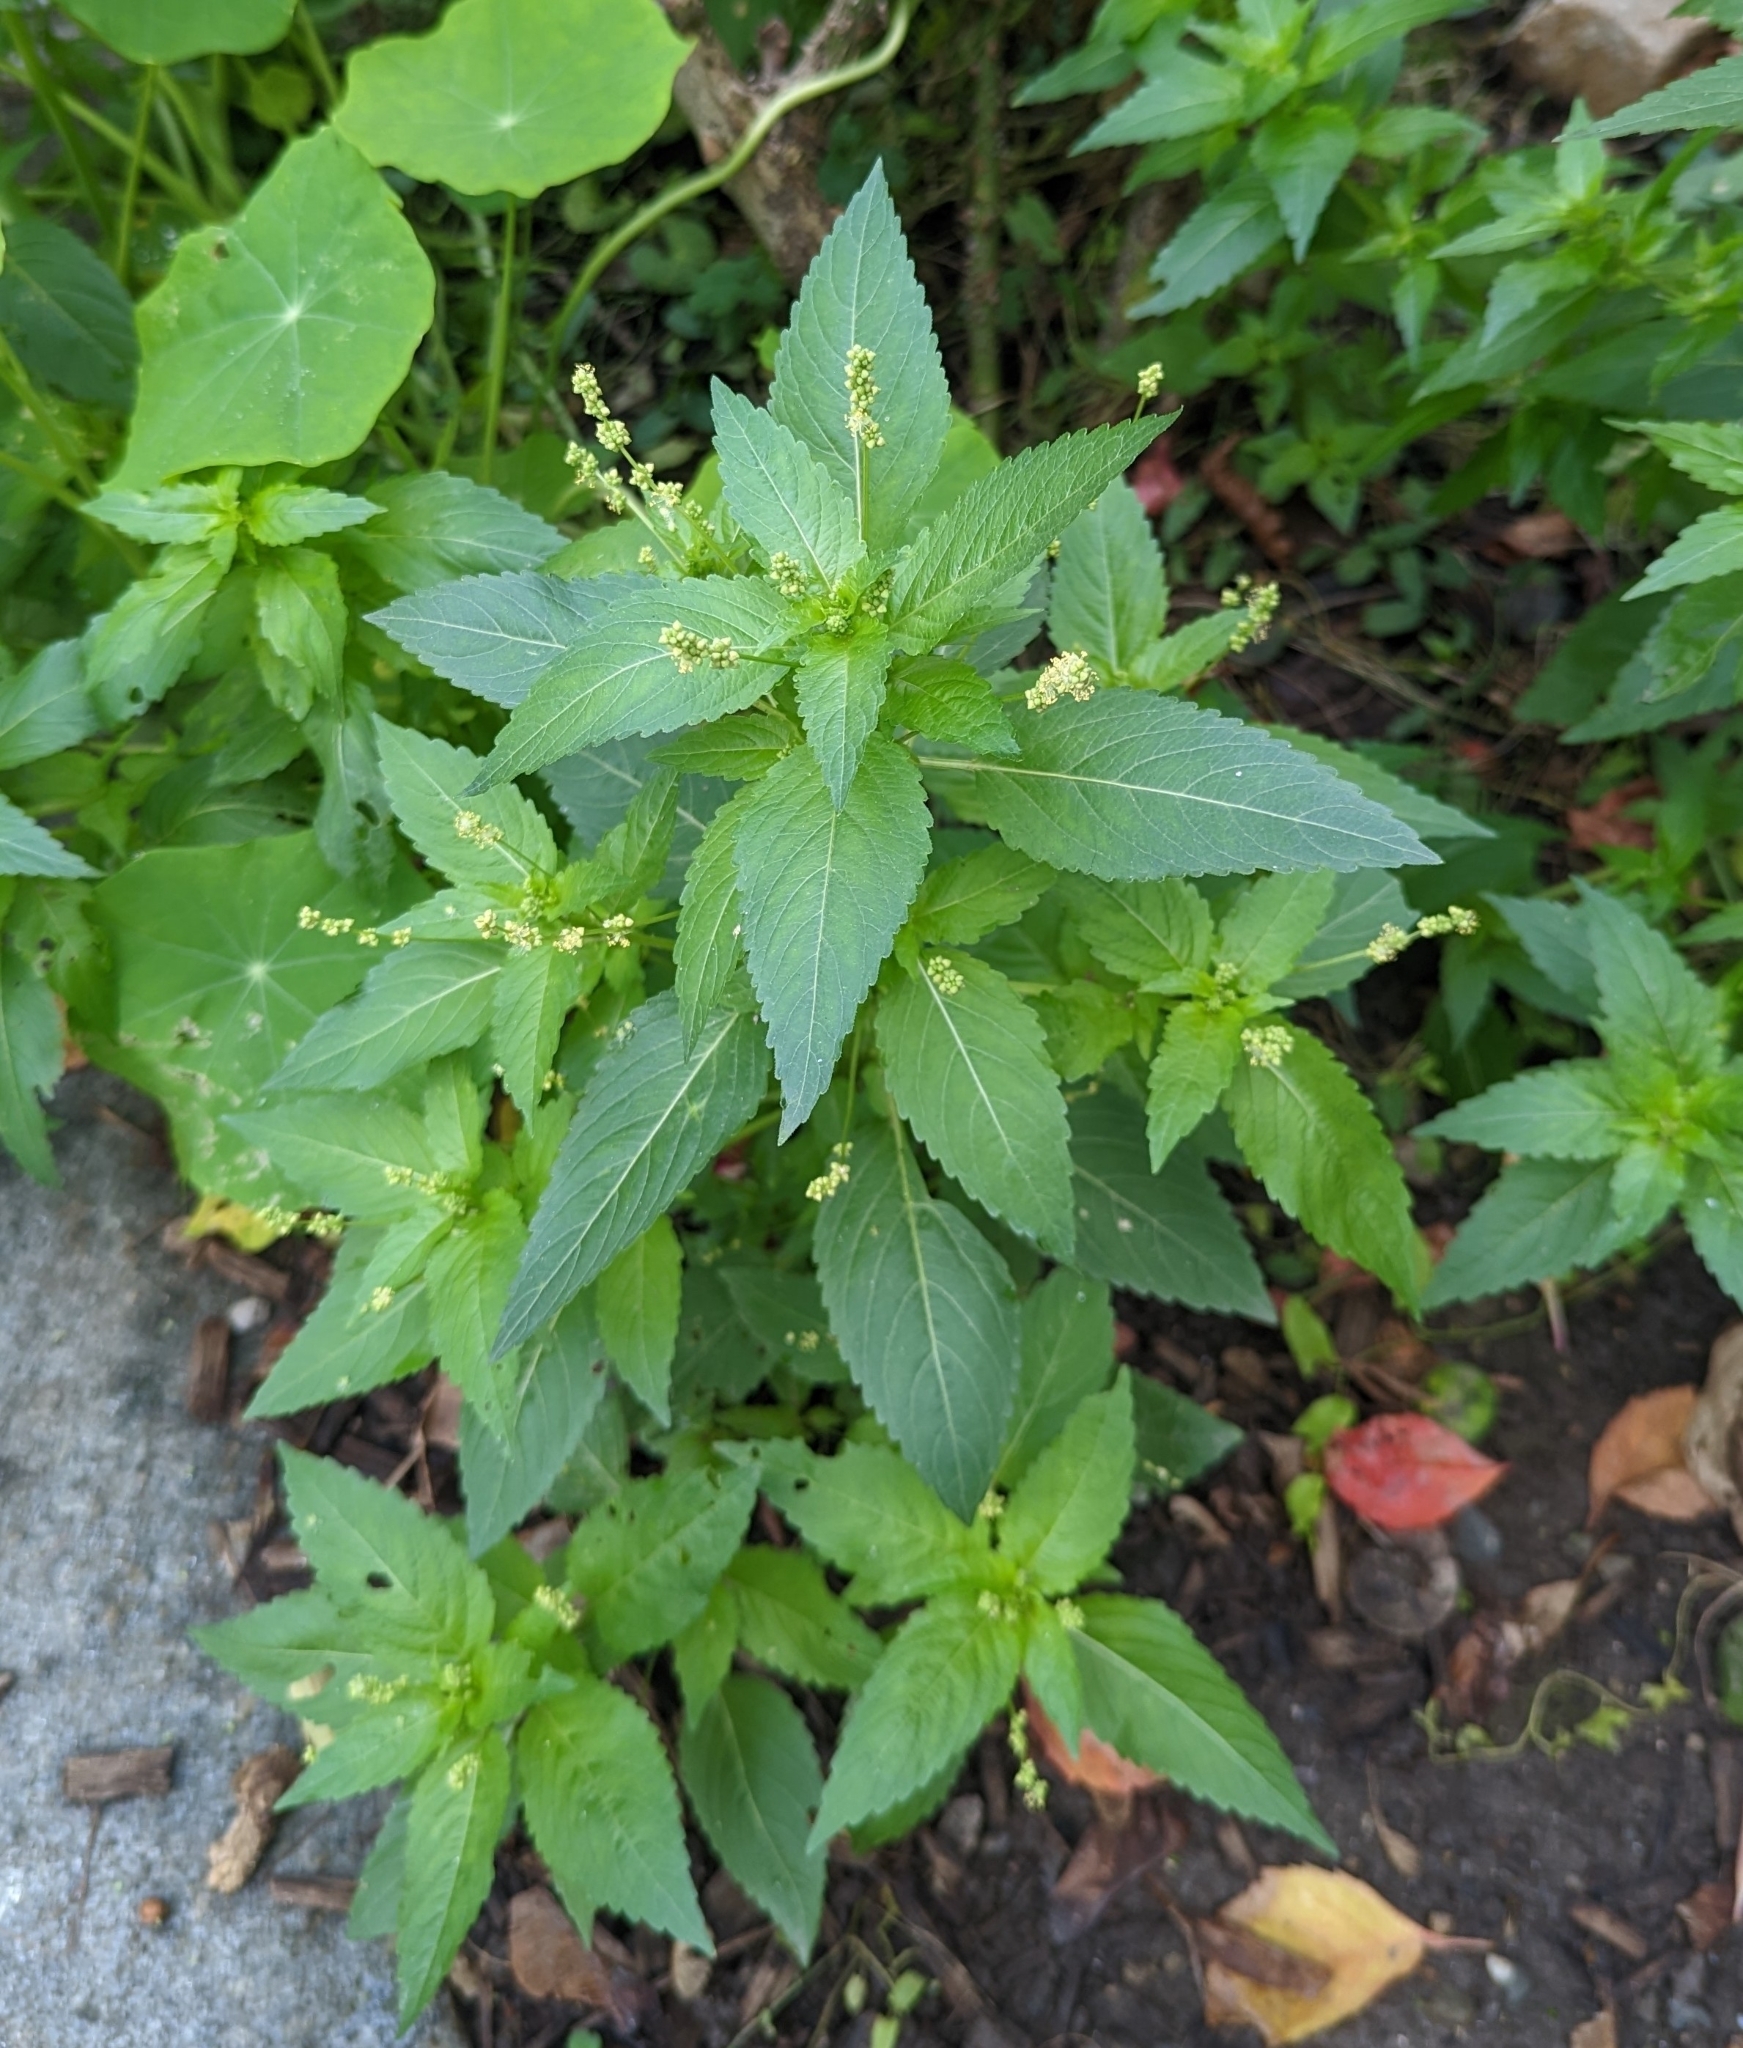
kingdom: Plantae
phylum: Tracheophyta
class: Magnoliopsida
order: Malpighiales
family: Euphorbiaceae
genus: Mercurialis
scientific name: Mercurialis annua
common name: Annual mercury
